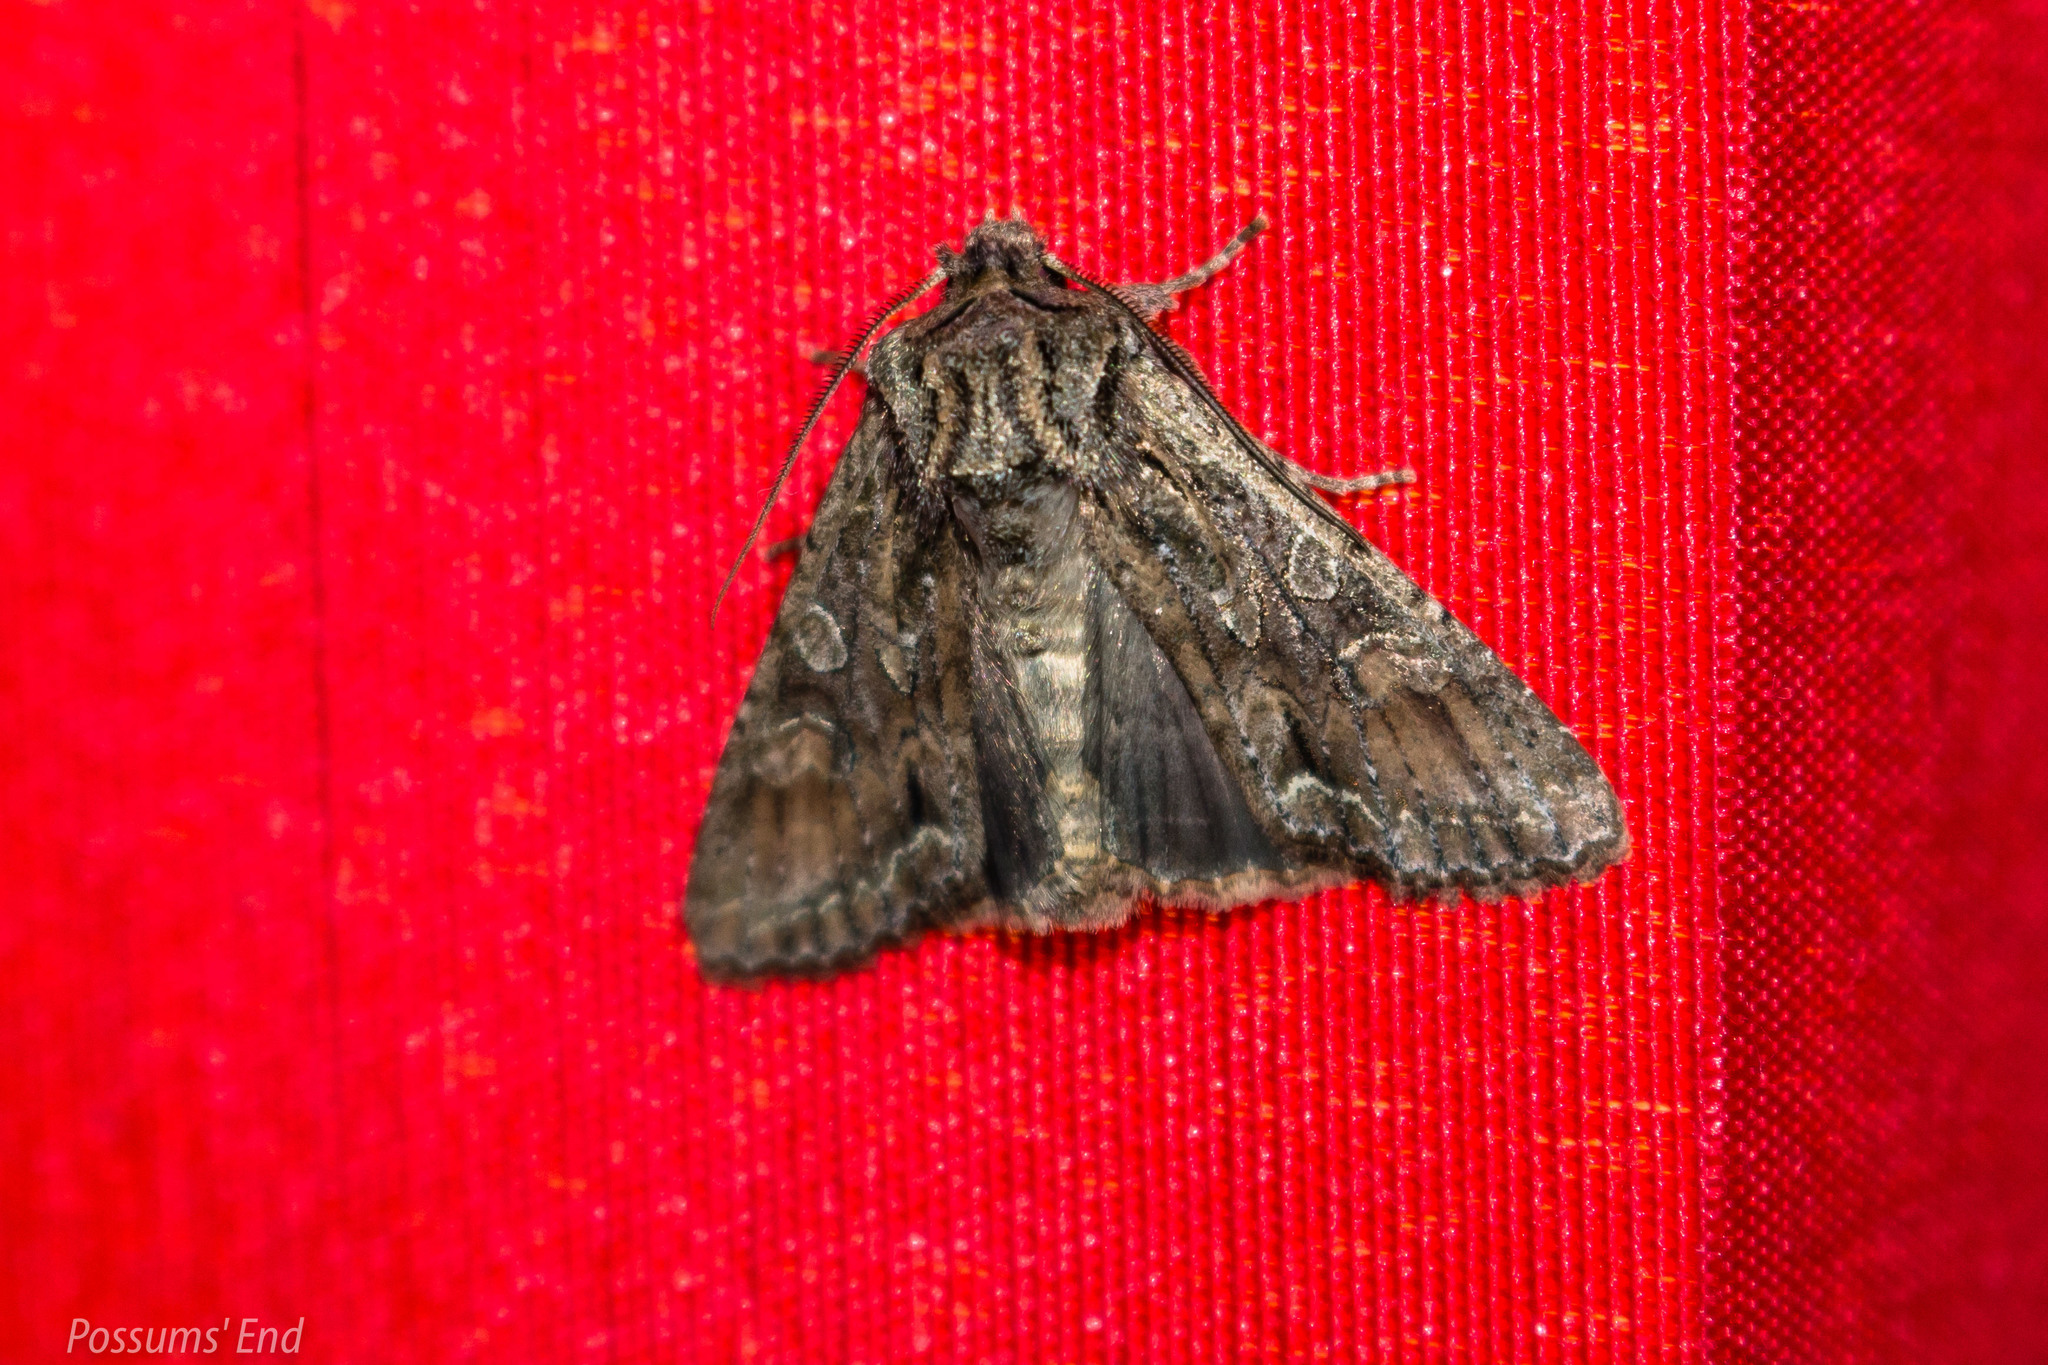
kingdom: Animalia
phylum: Arthropoda
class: Insecta
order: Lepidoptera
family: Noctuidae
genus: Ichneutica
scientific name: Ichneutica mutans
